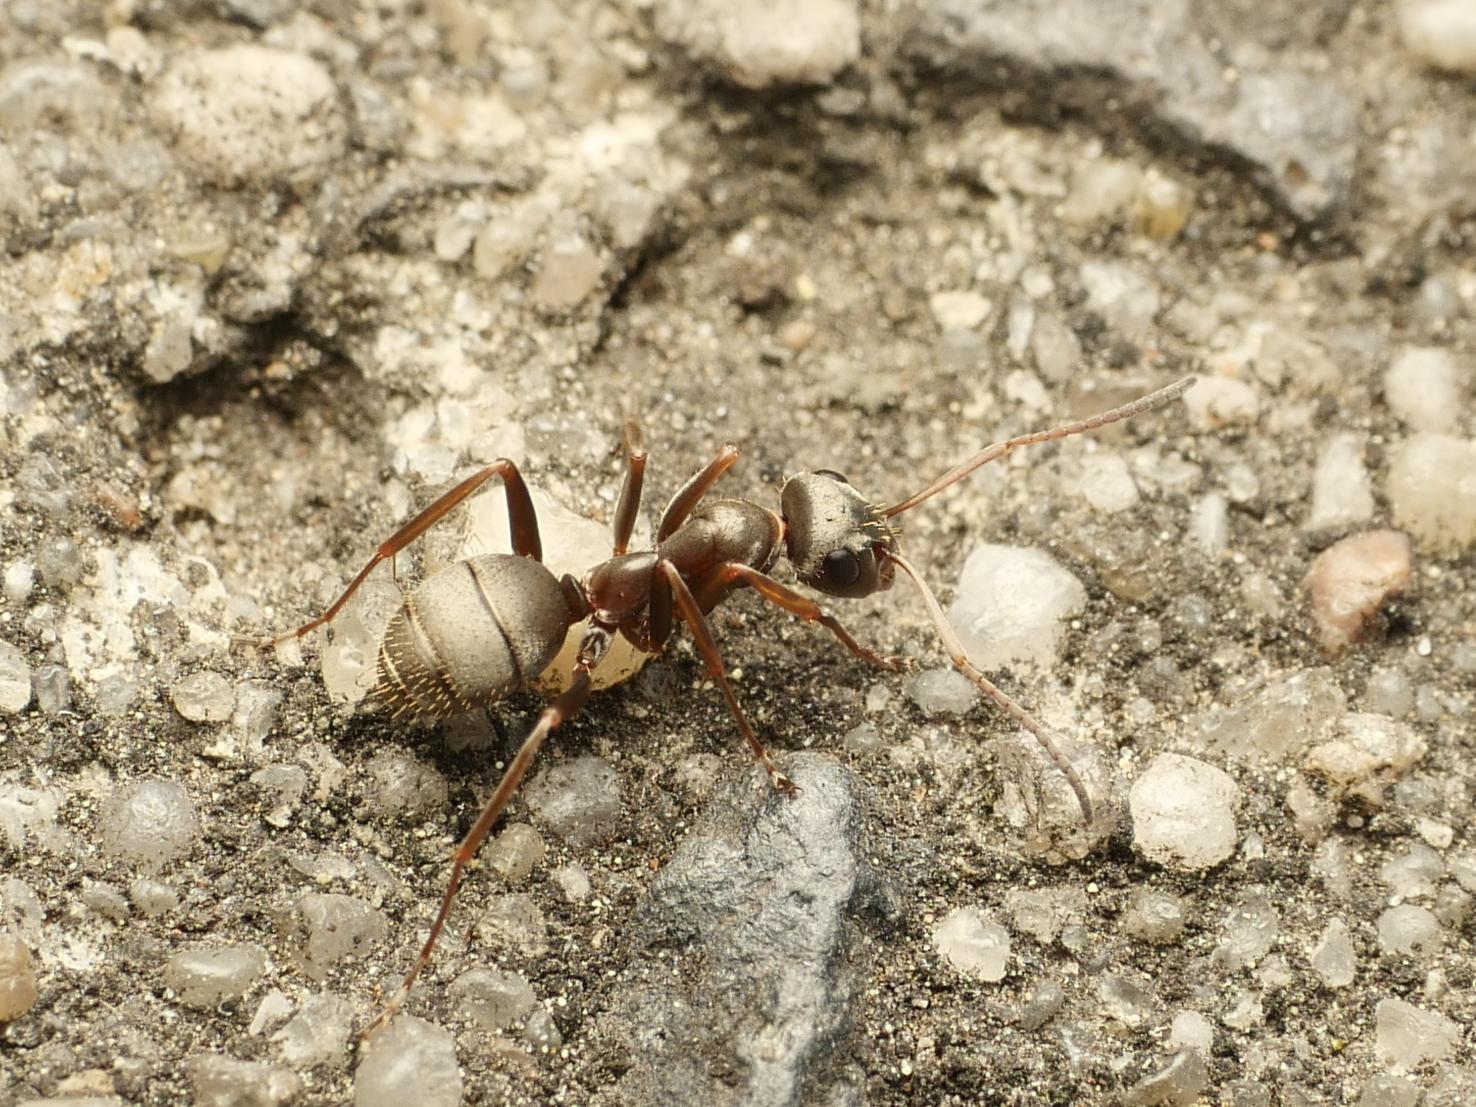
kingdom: Animalia
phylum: Arthropoda
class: Insecta
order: Hymenoptera
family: Formicidae
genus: Formica
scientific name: Formica cinerea
